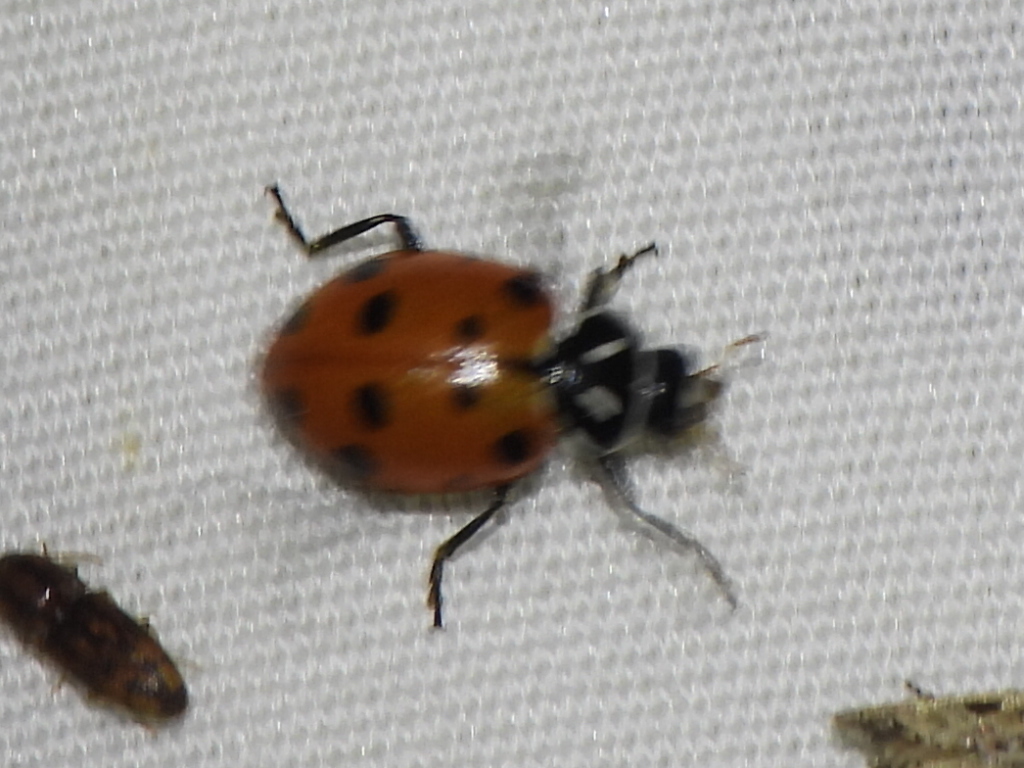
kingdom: Animalia
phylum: Arthropoda
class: Insecta
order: Coleoptera
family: Coccinellidae
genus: Hippodamia
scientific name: Hippodamia convergens
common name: Convergent lady beetle
